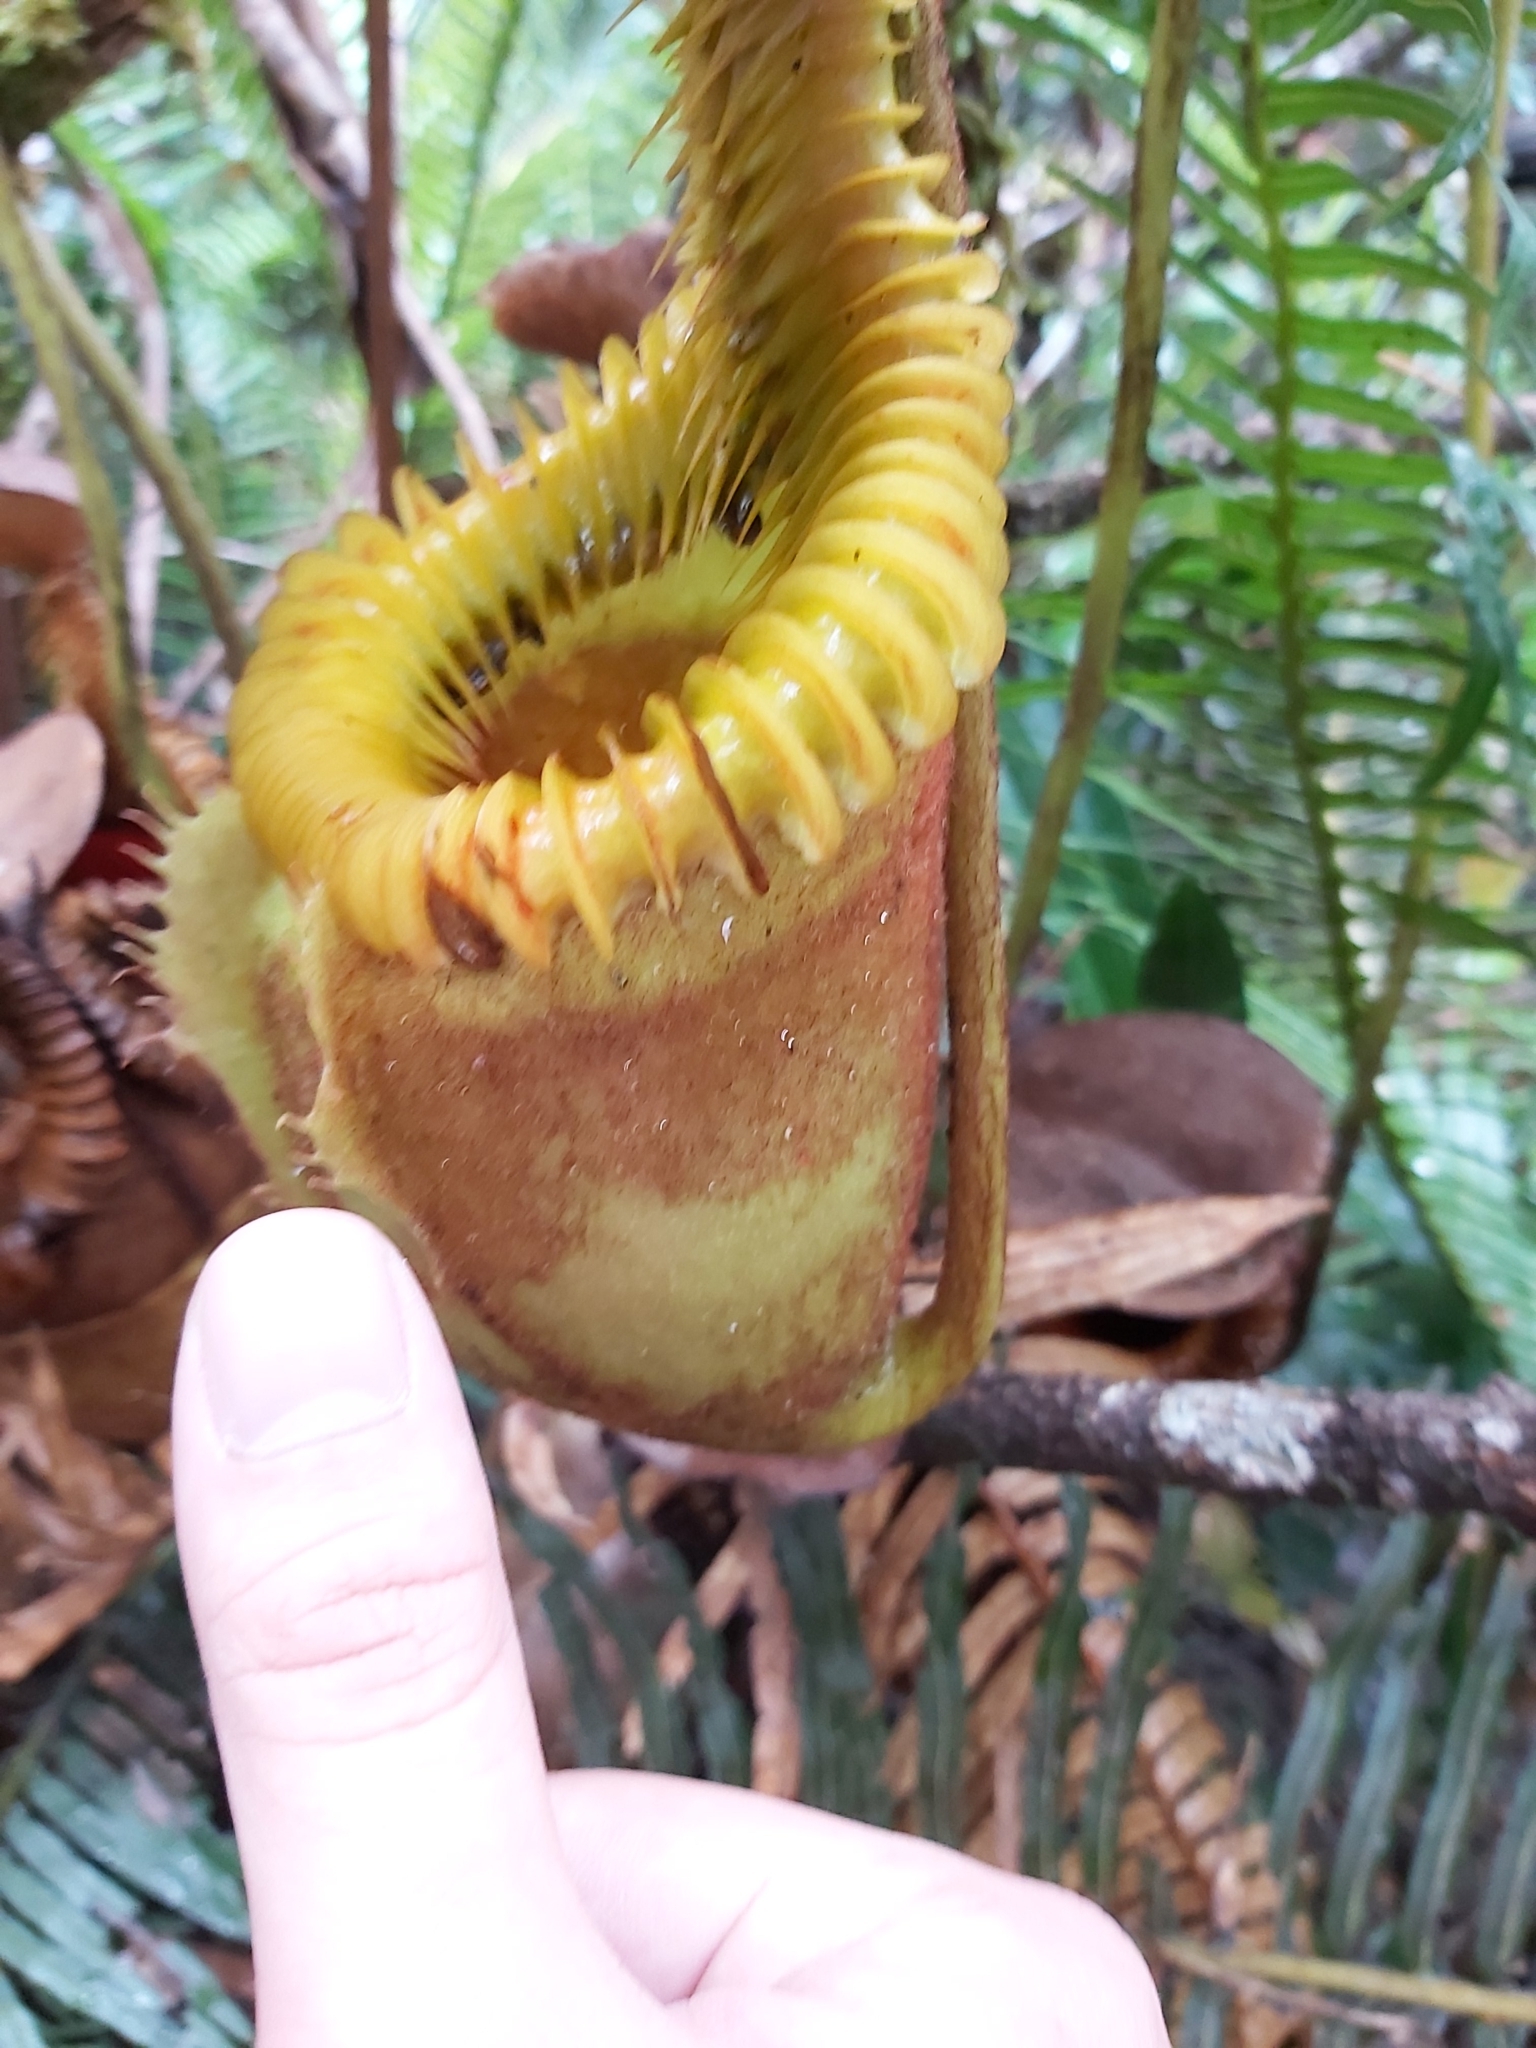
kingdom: Plantae
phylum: Tracheophyta
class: Magnoliopsida
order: Caryophyllales
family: Nepenthaceae
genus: Nepenthes
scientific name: Nepenthes villosa
